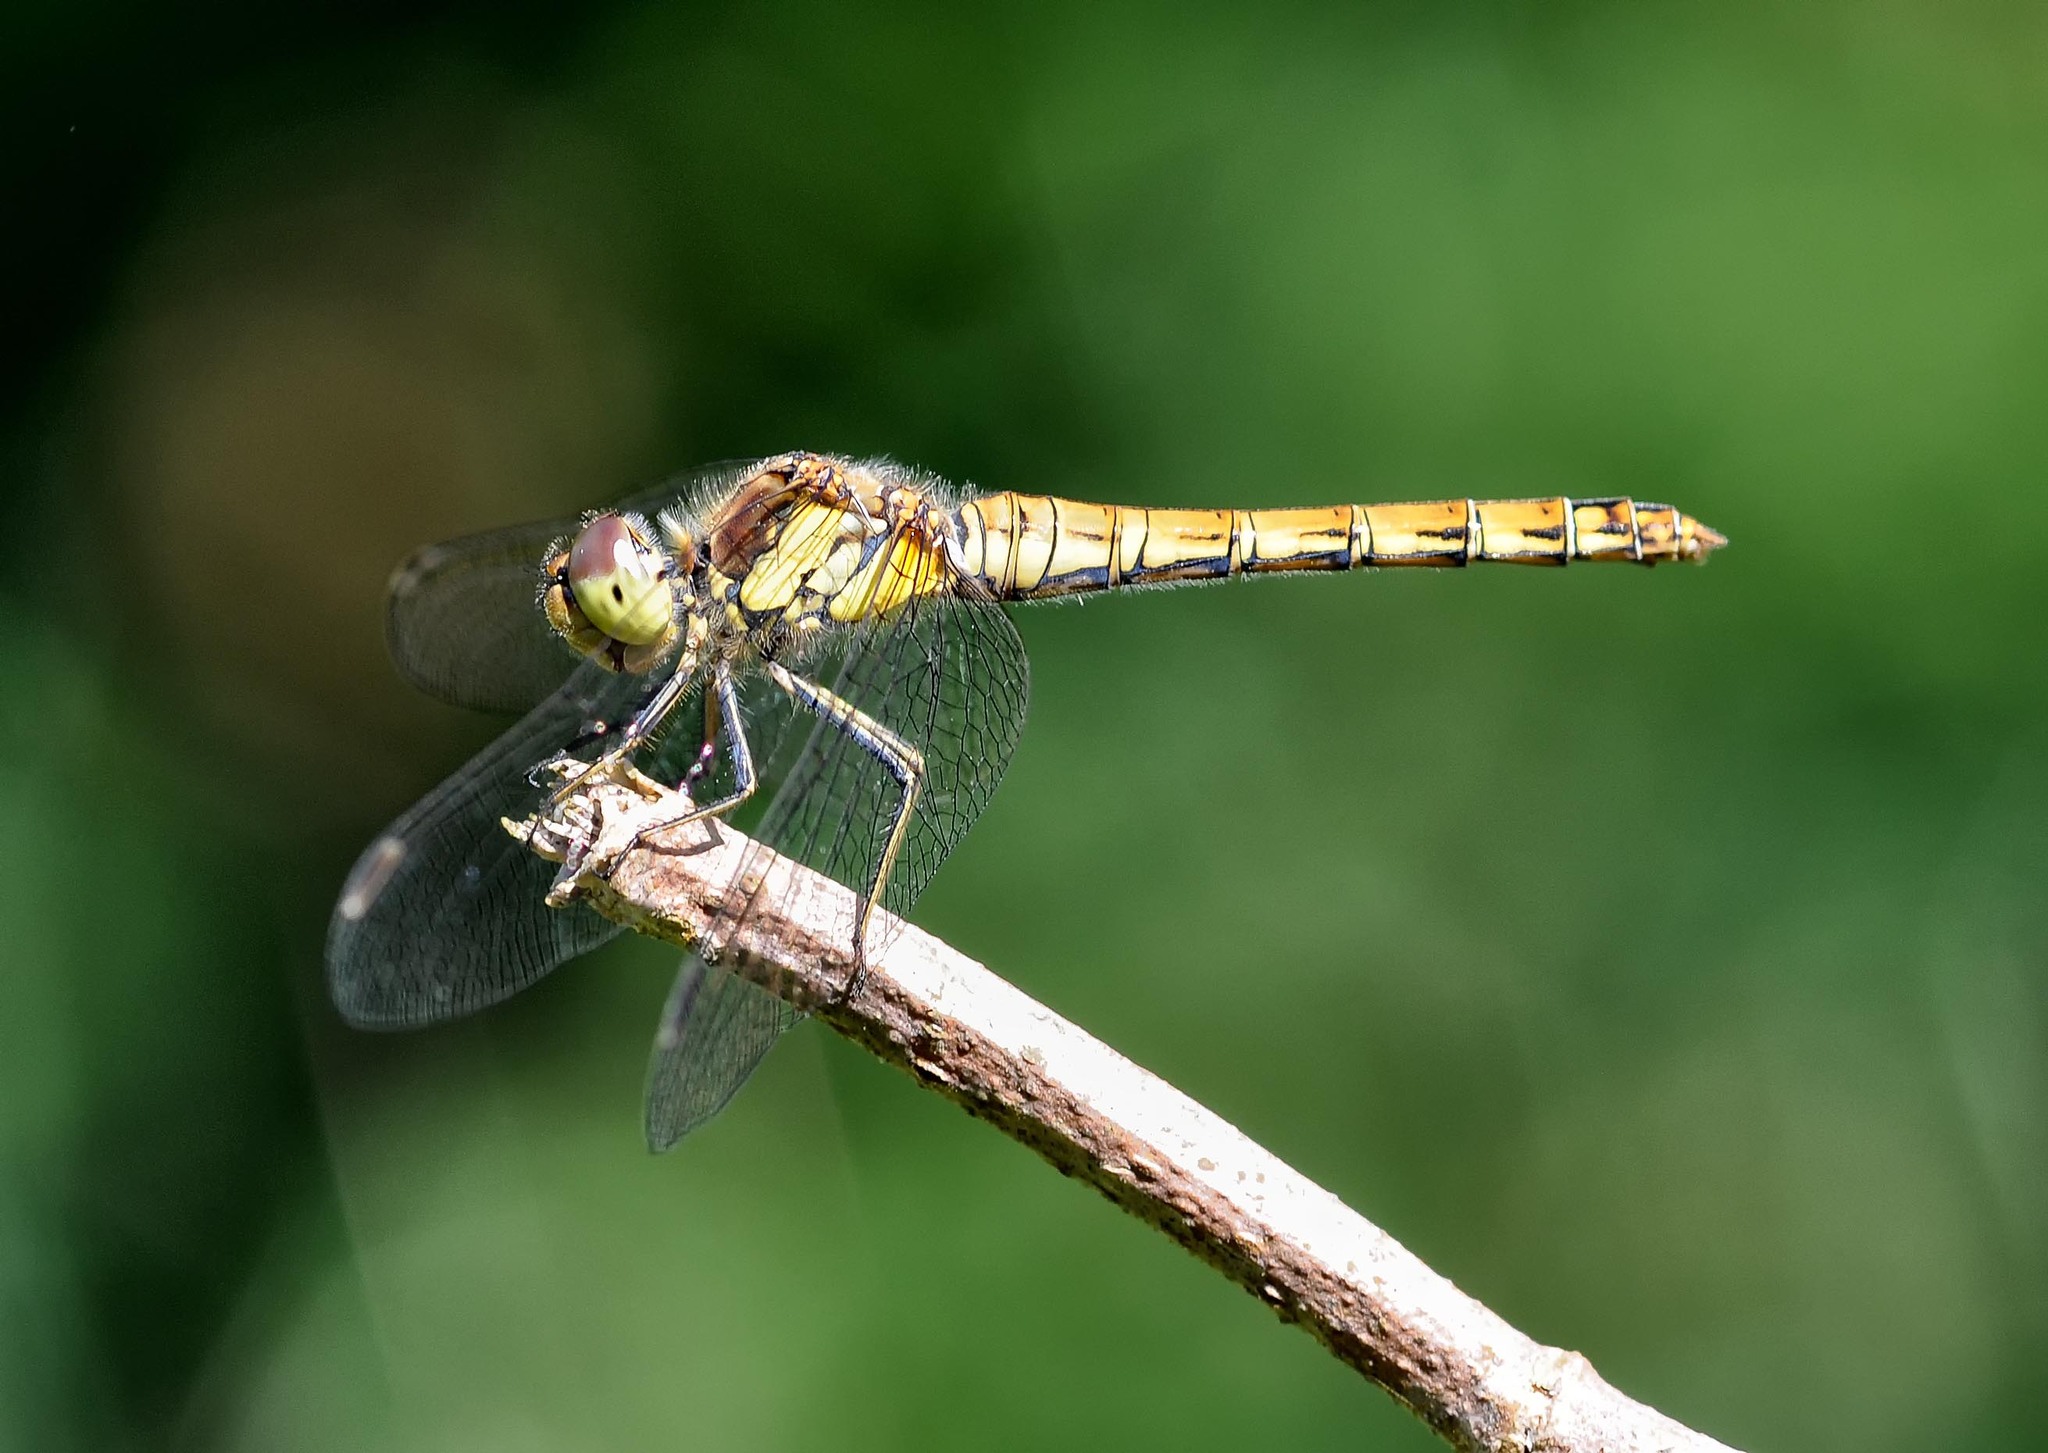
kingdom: Animalia
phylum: Arthropoda
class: Insecta
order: Odonata
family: Libellulidae
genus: Sympetrum
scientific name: Sympetrum striolatum
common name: Common darter
